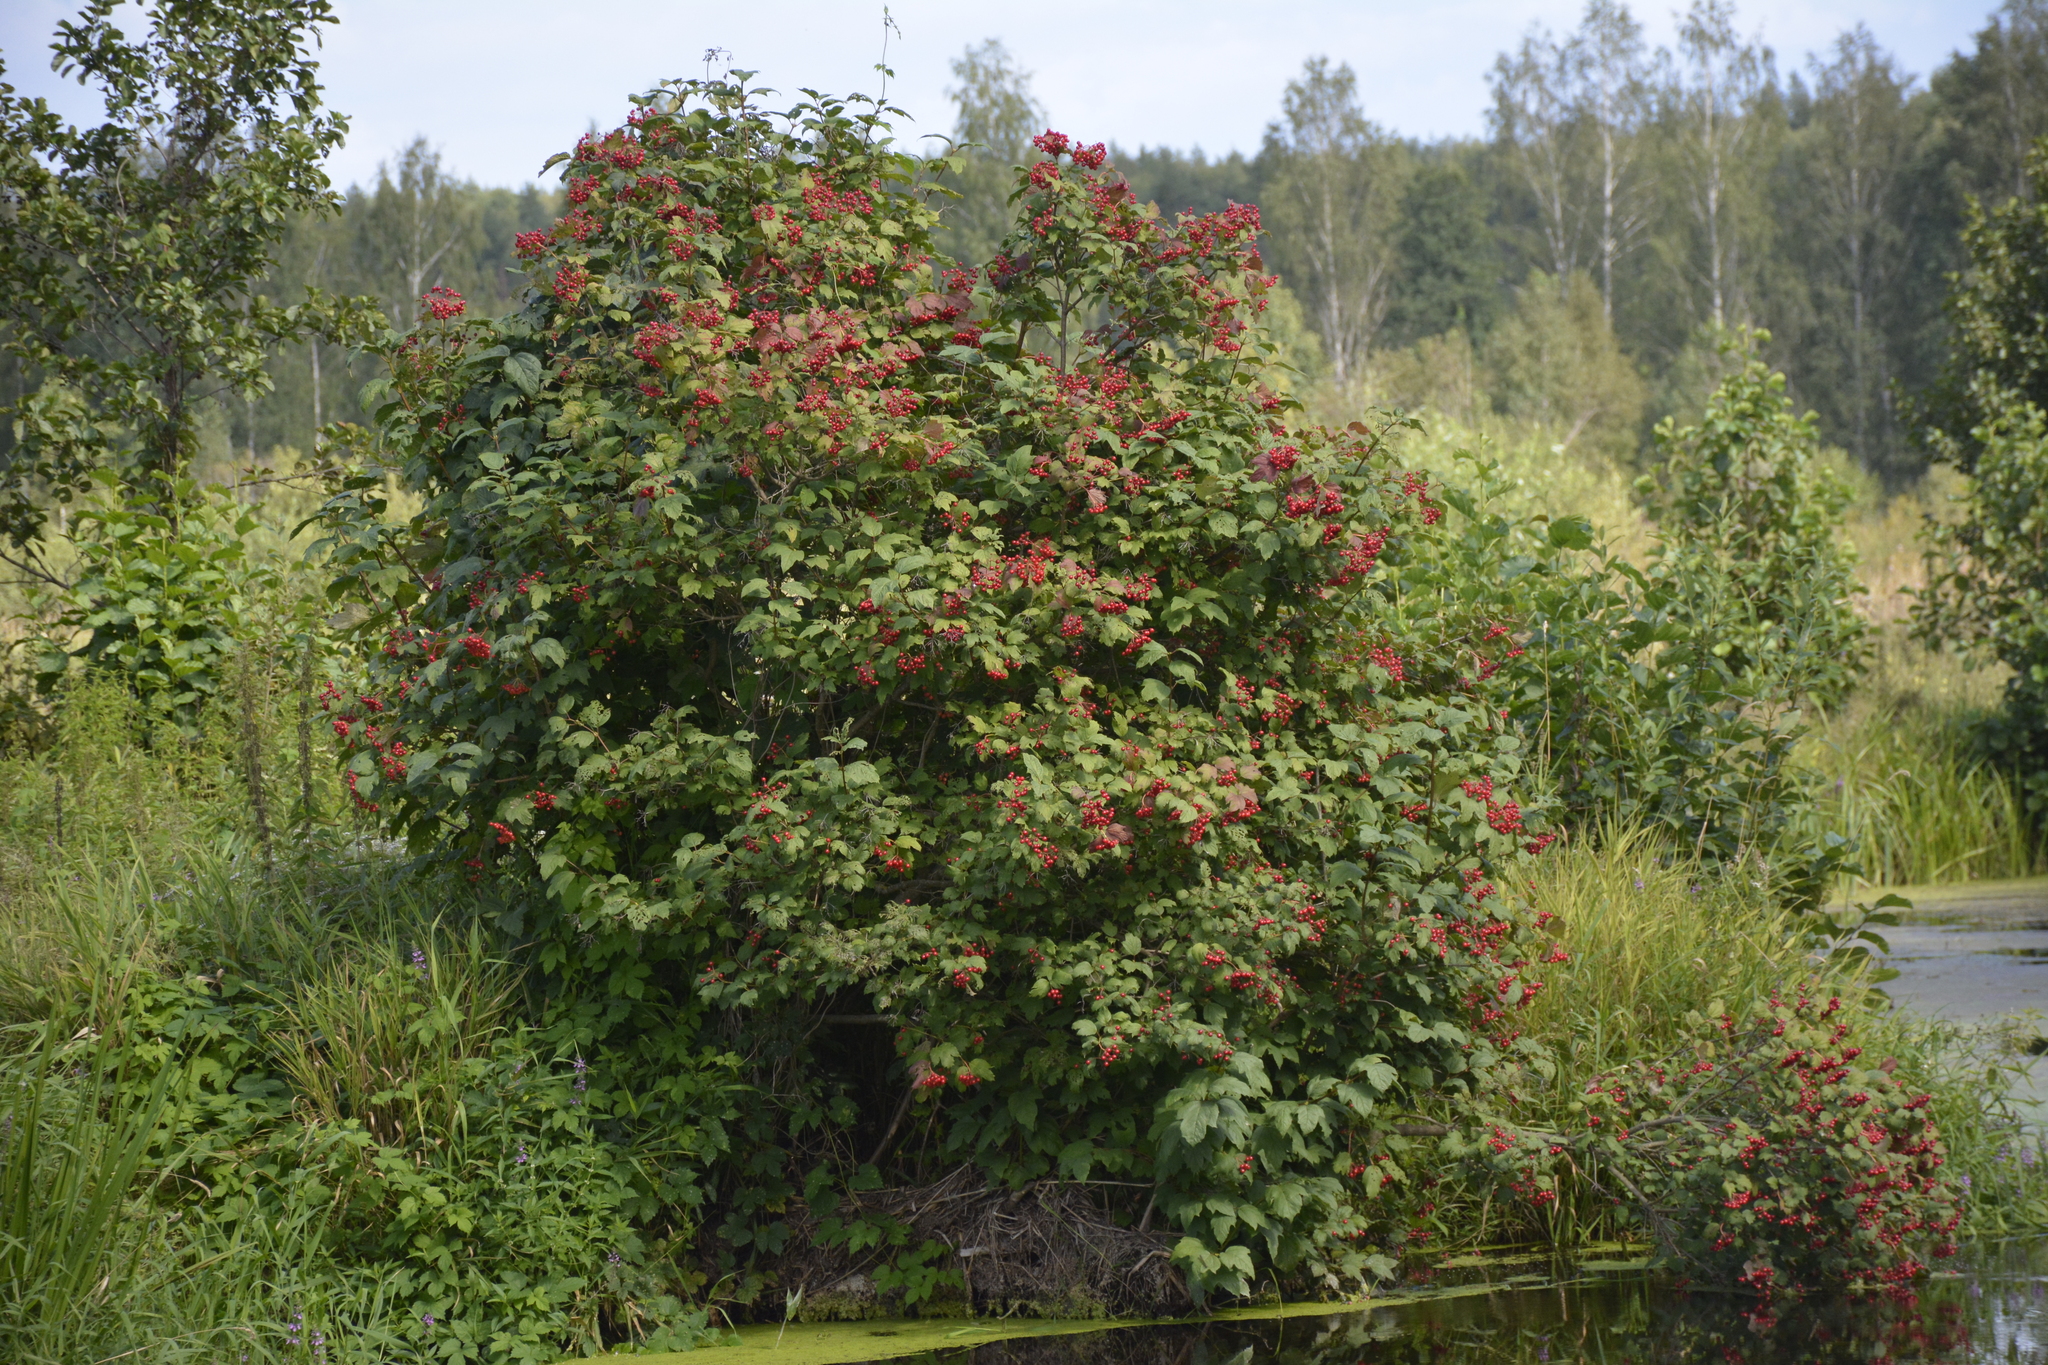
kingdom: Plantae
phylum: Tracheophyta
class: Magnoliopsida
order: Dipsacales
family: Viburnaceae
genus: Viburnum
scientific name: Viburnum opulus
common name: Guelder-rose
